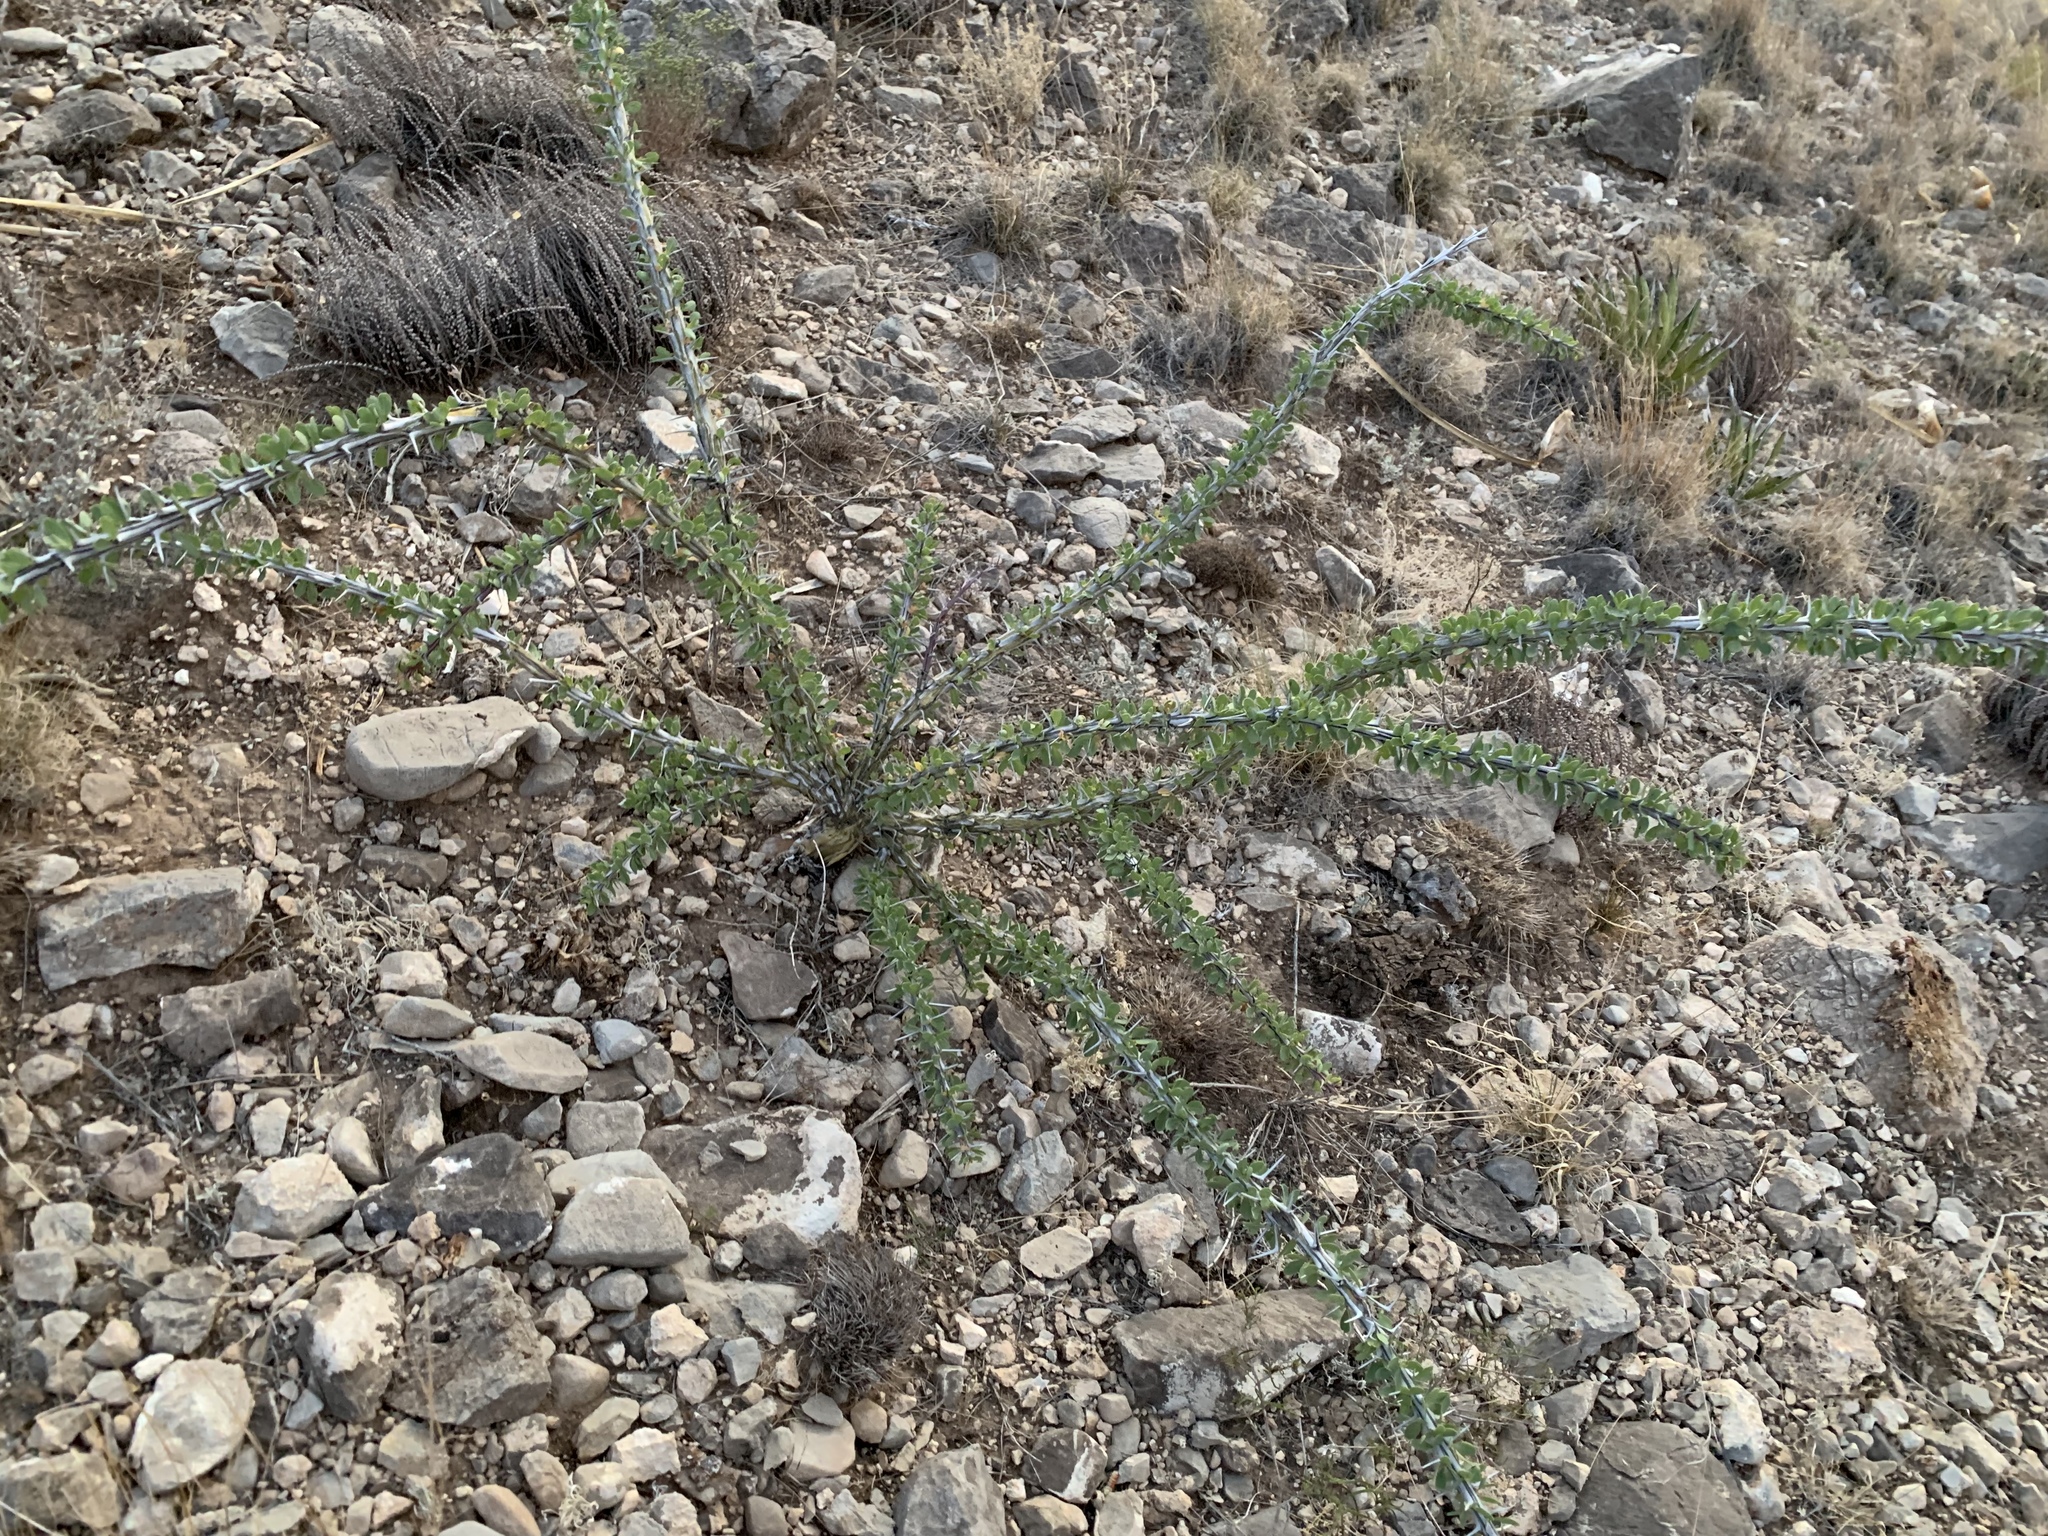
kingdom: Plantae
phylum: Tracheophyta
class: Magnoliopsida
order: Ericales
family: Fouquieriaceae
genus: Fouquieria
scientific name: Fouquieria splendens
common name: Vine-cactus
